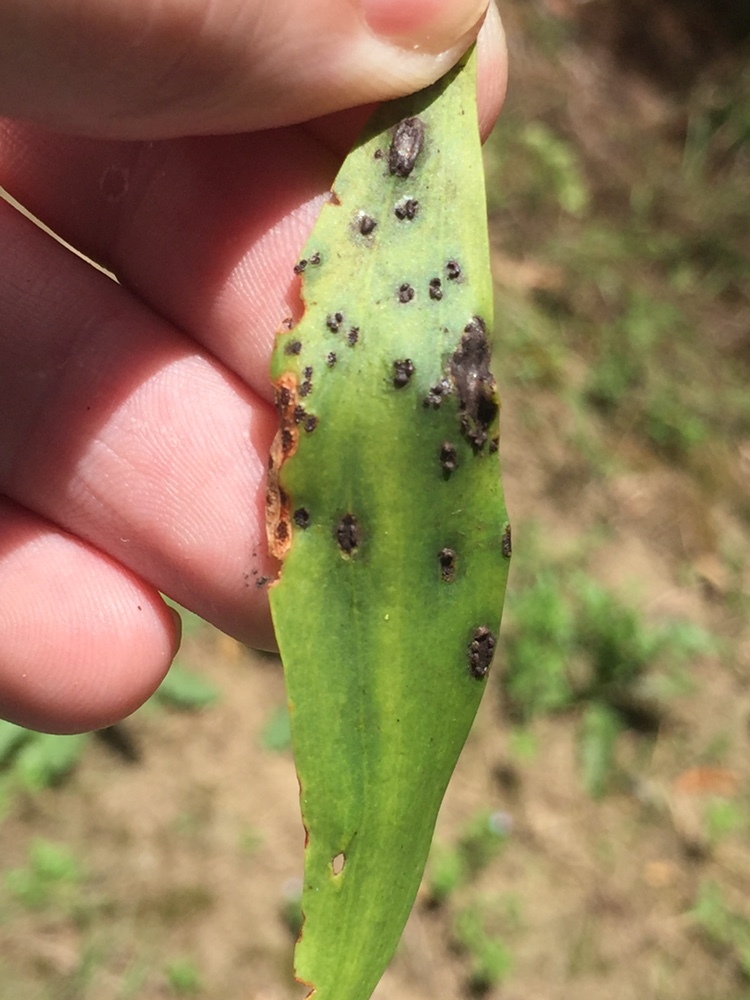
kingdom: Fungi
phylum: Basidiomycota
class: Pucciniomycetes
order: Pucciniales
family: Uromycladiaceae
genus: Uromycladium
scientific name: Uromycladium maritimum
